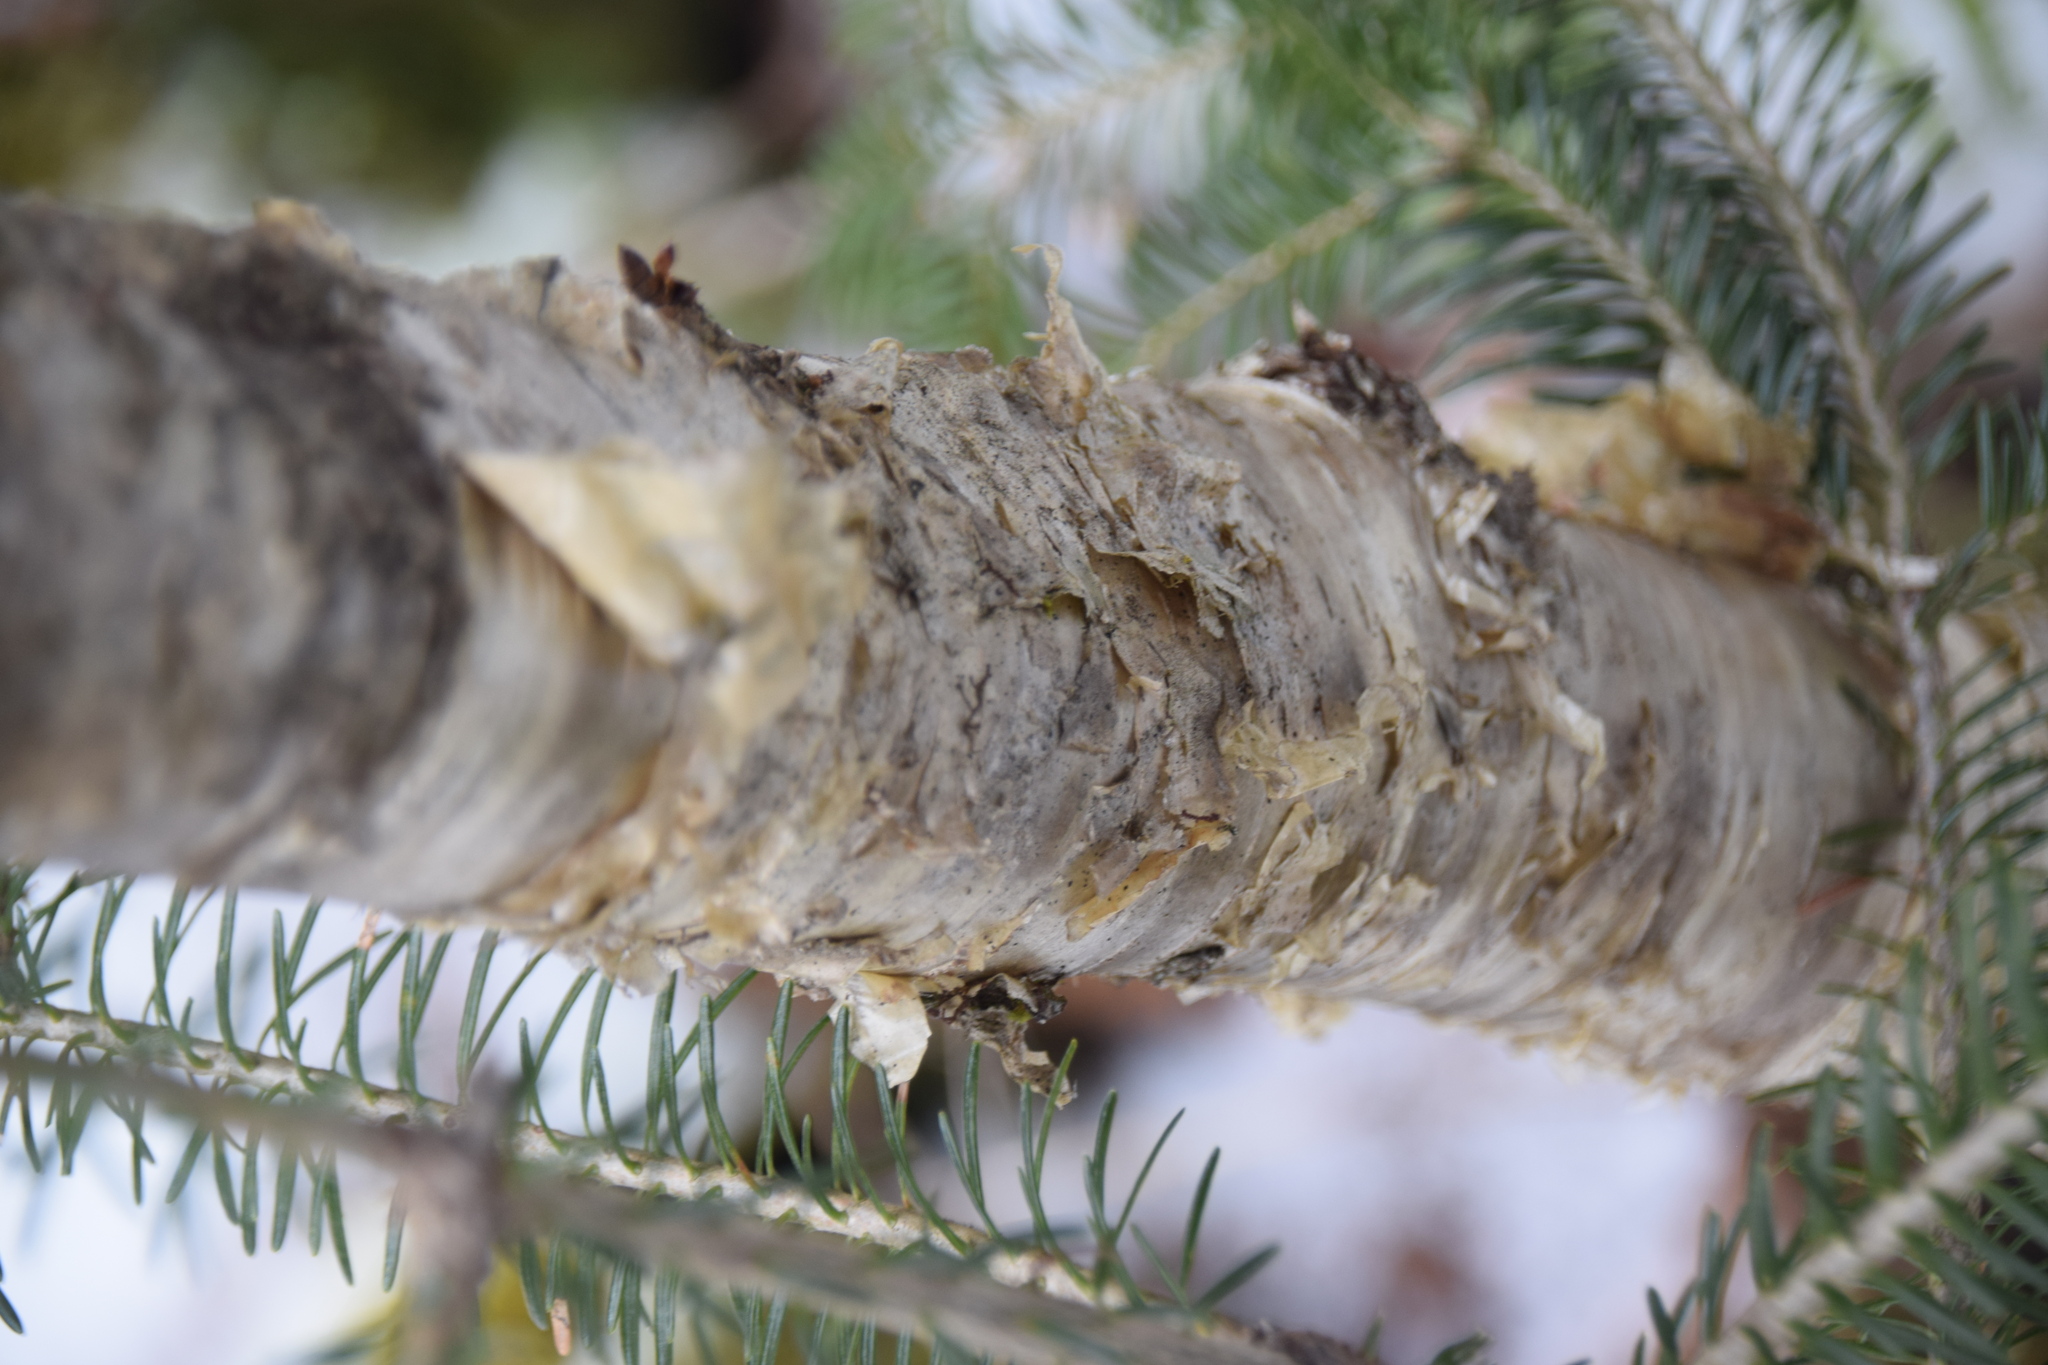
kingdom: Plantae
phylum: Tracheophyta
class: Magnoliopsida
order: Fagales
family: Betulaceae
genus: Betula
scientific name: Betula alleghaniensis
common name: Yellow birch
